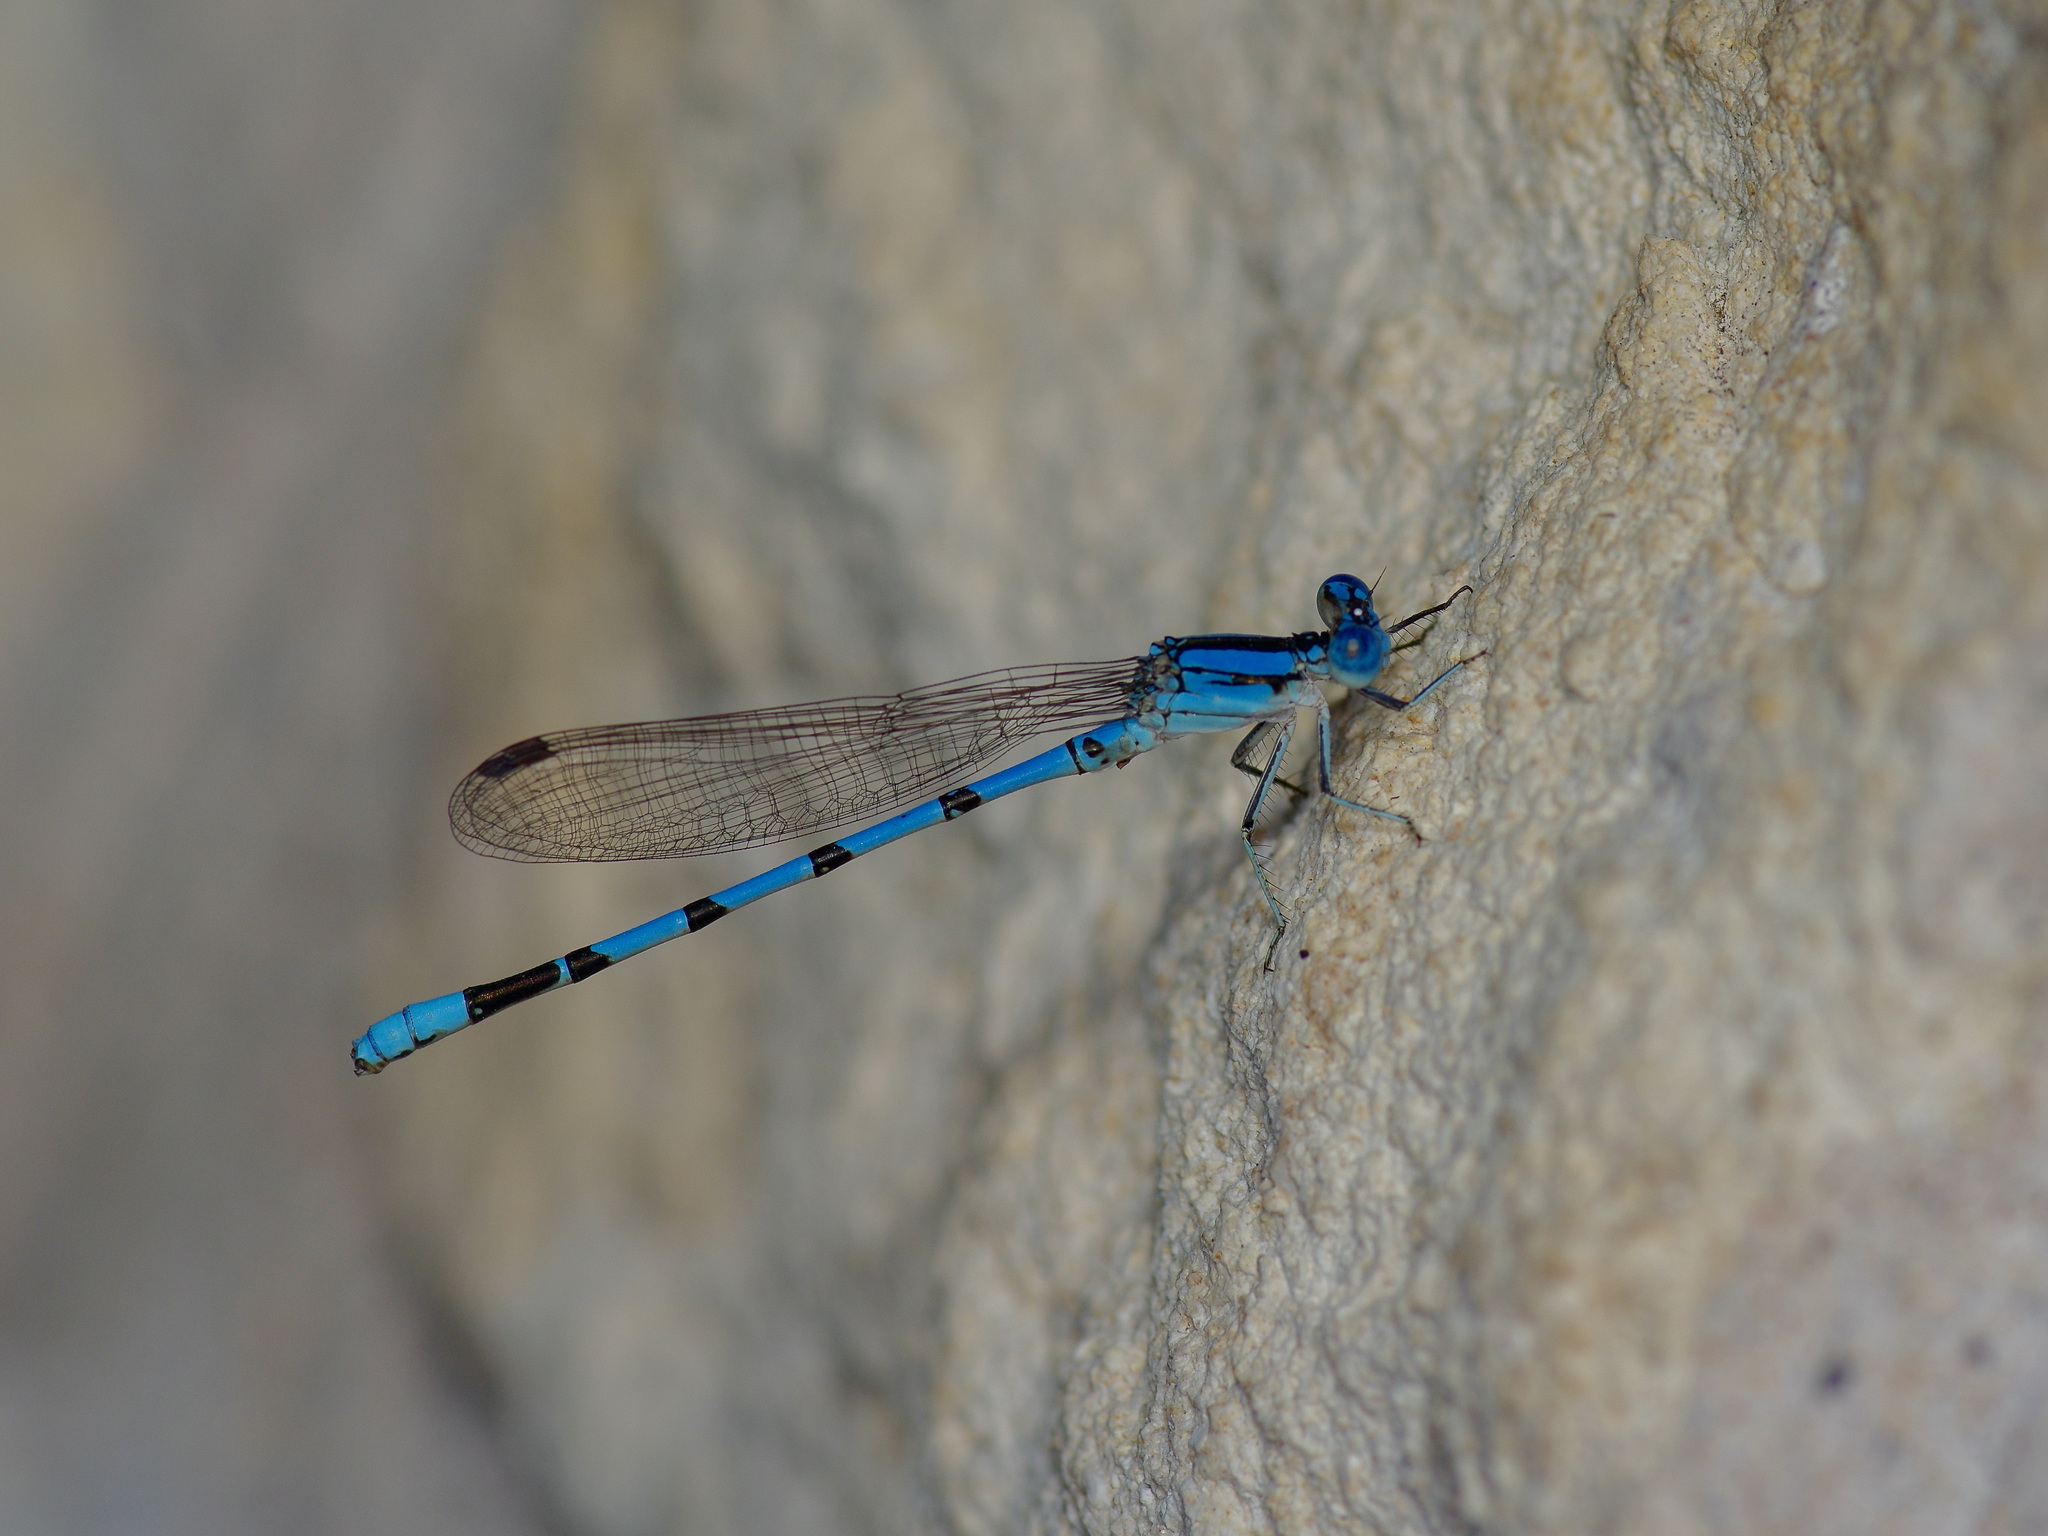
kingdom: Animalia
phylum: Arthropoda
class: Insecta
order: Odonata
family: Coenagrionidae
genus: Argia
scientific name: Argia nahuana
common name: Aztec dancer
